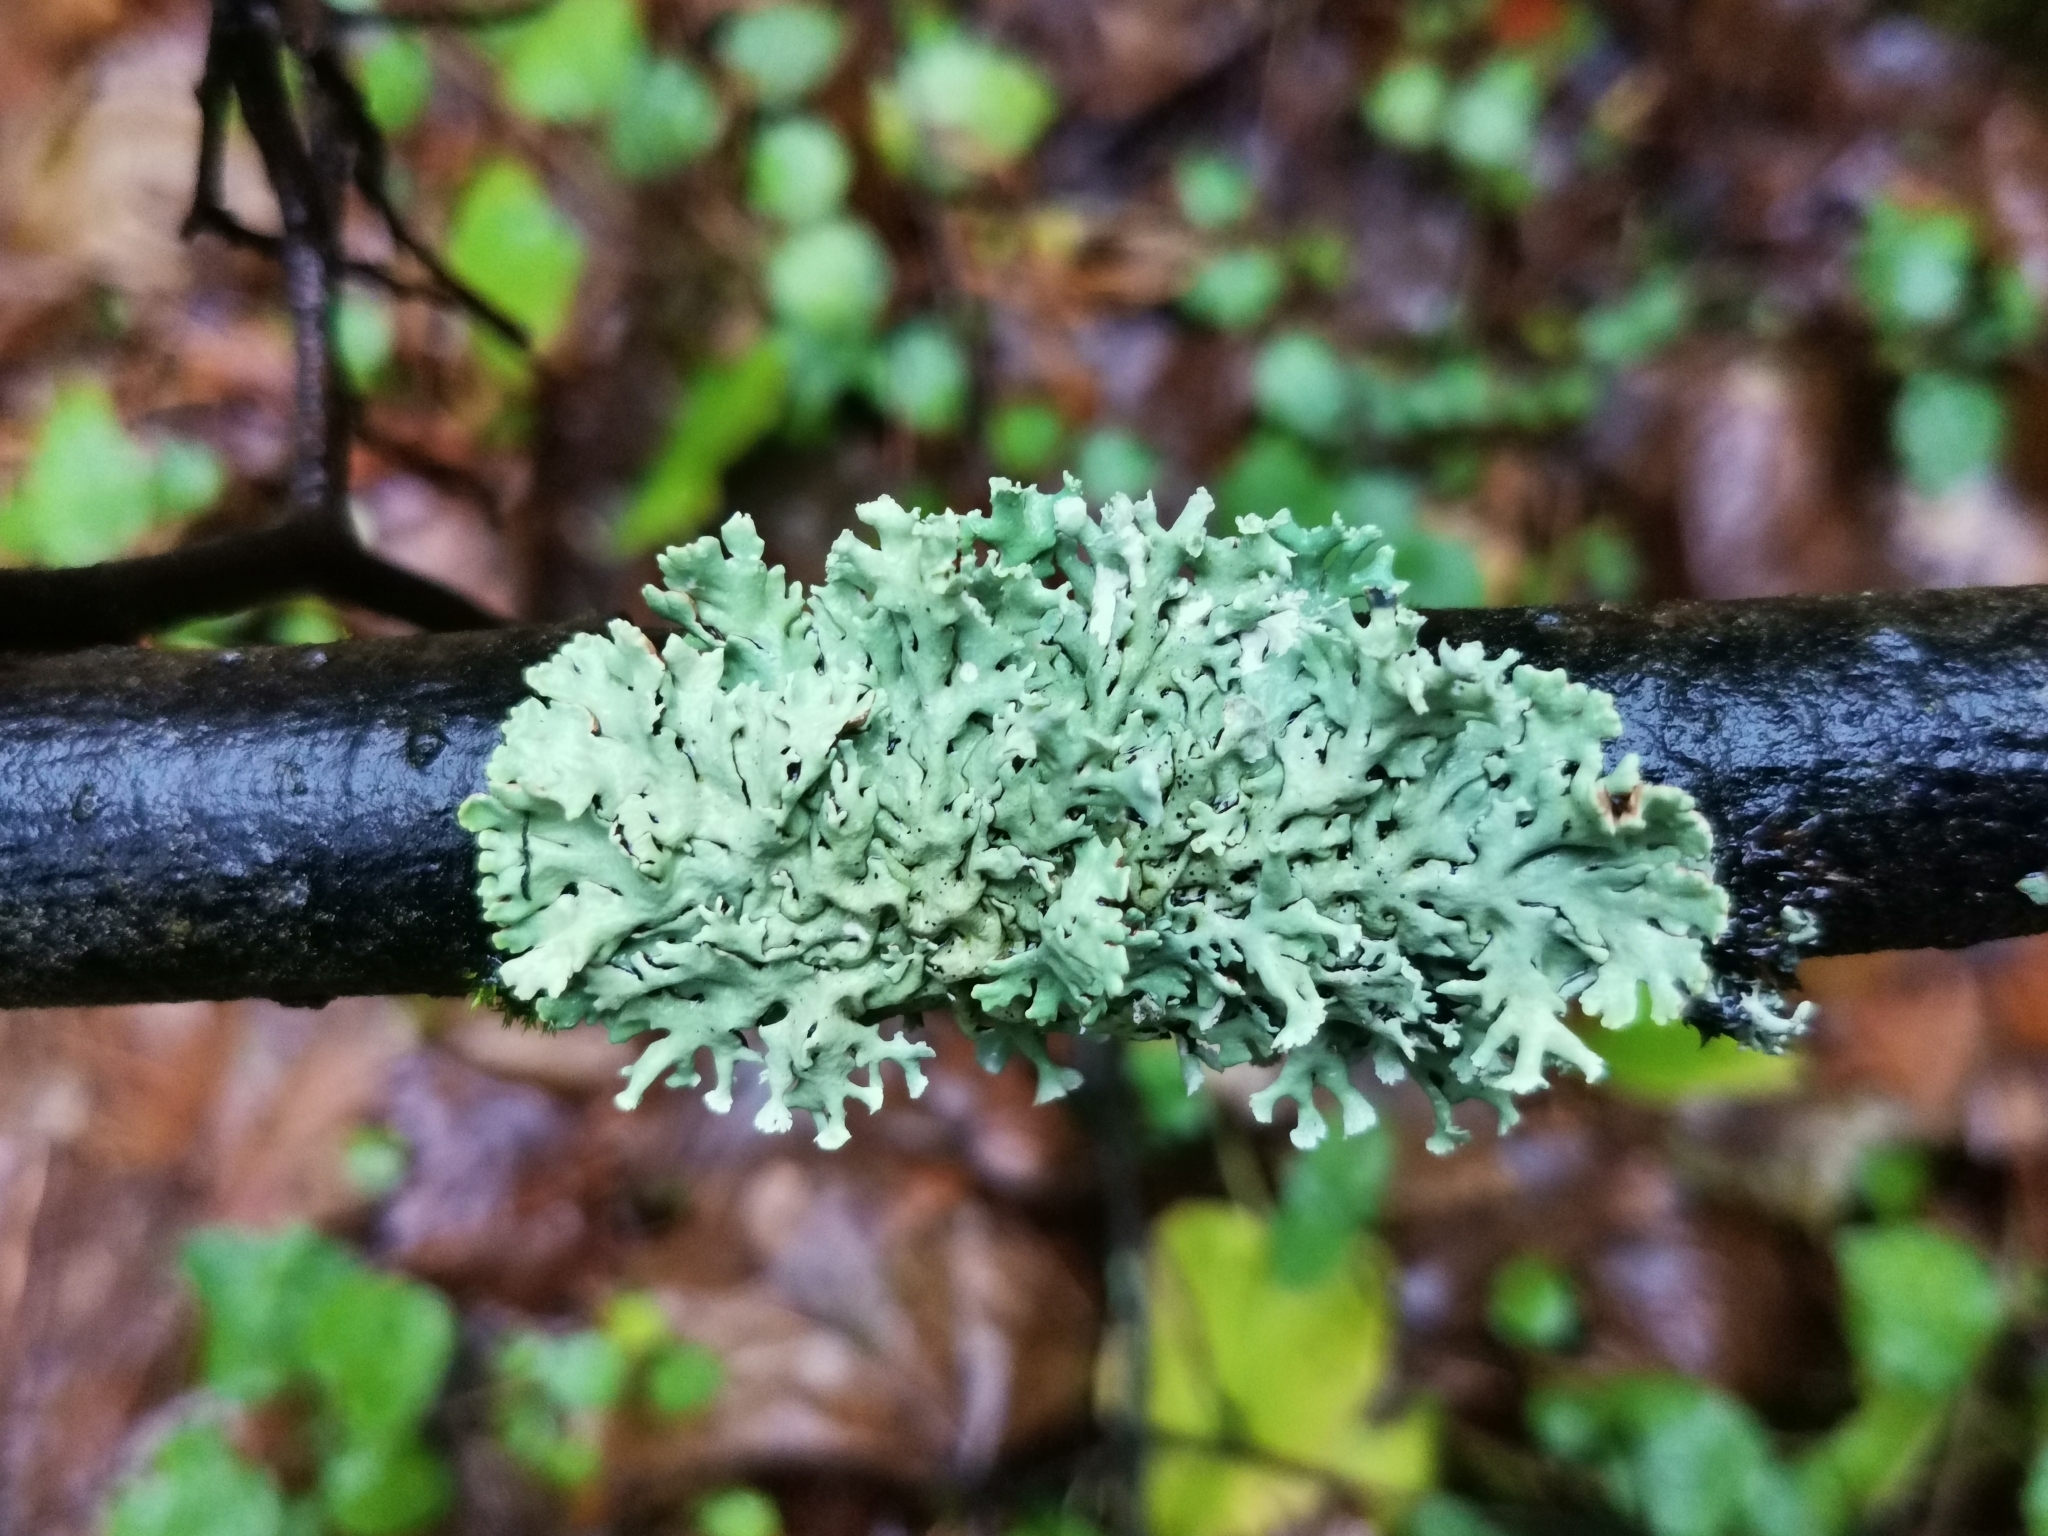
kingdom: Fungi
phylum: Ascomycota
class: Lecanoromycetes
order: Lecanorales
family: Parmeliaceae
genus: Hypogymnia
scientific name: Hypogymnia physodes
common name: Dark crottle
